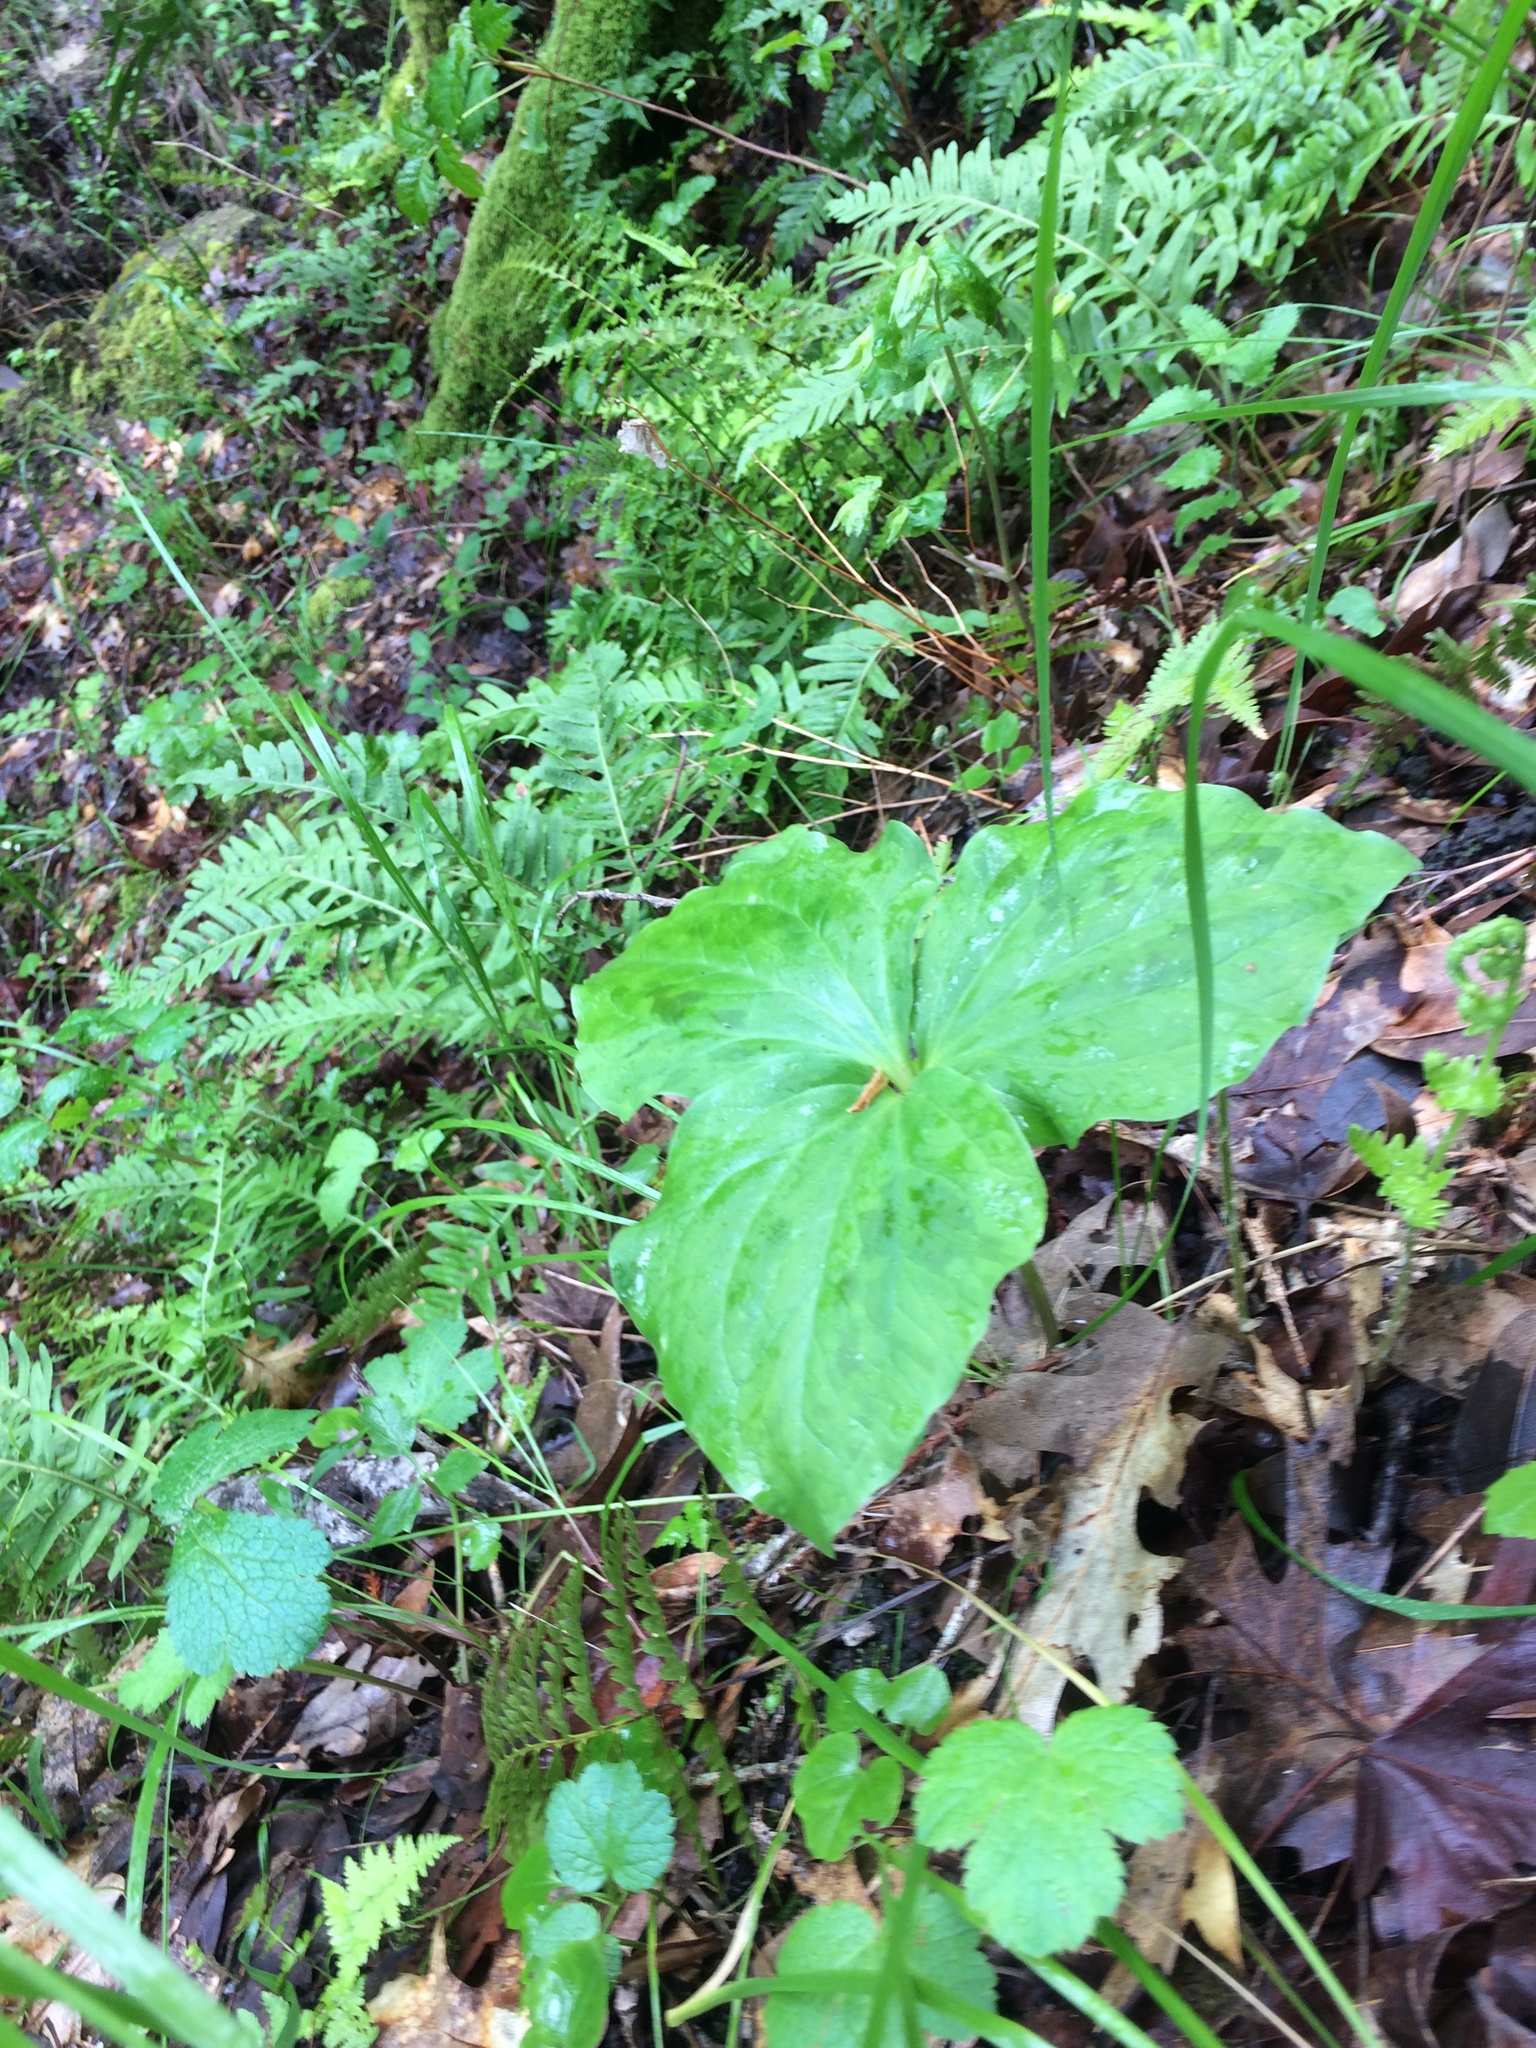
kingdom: Plantae
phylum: Tracheophyta
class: Liliopsida
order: Liliales
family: Melanthiaceae
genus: Trillium
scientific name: Trillium ovatum
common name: Pacific trillium
